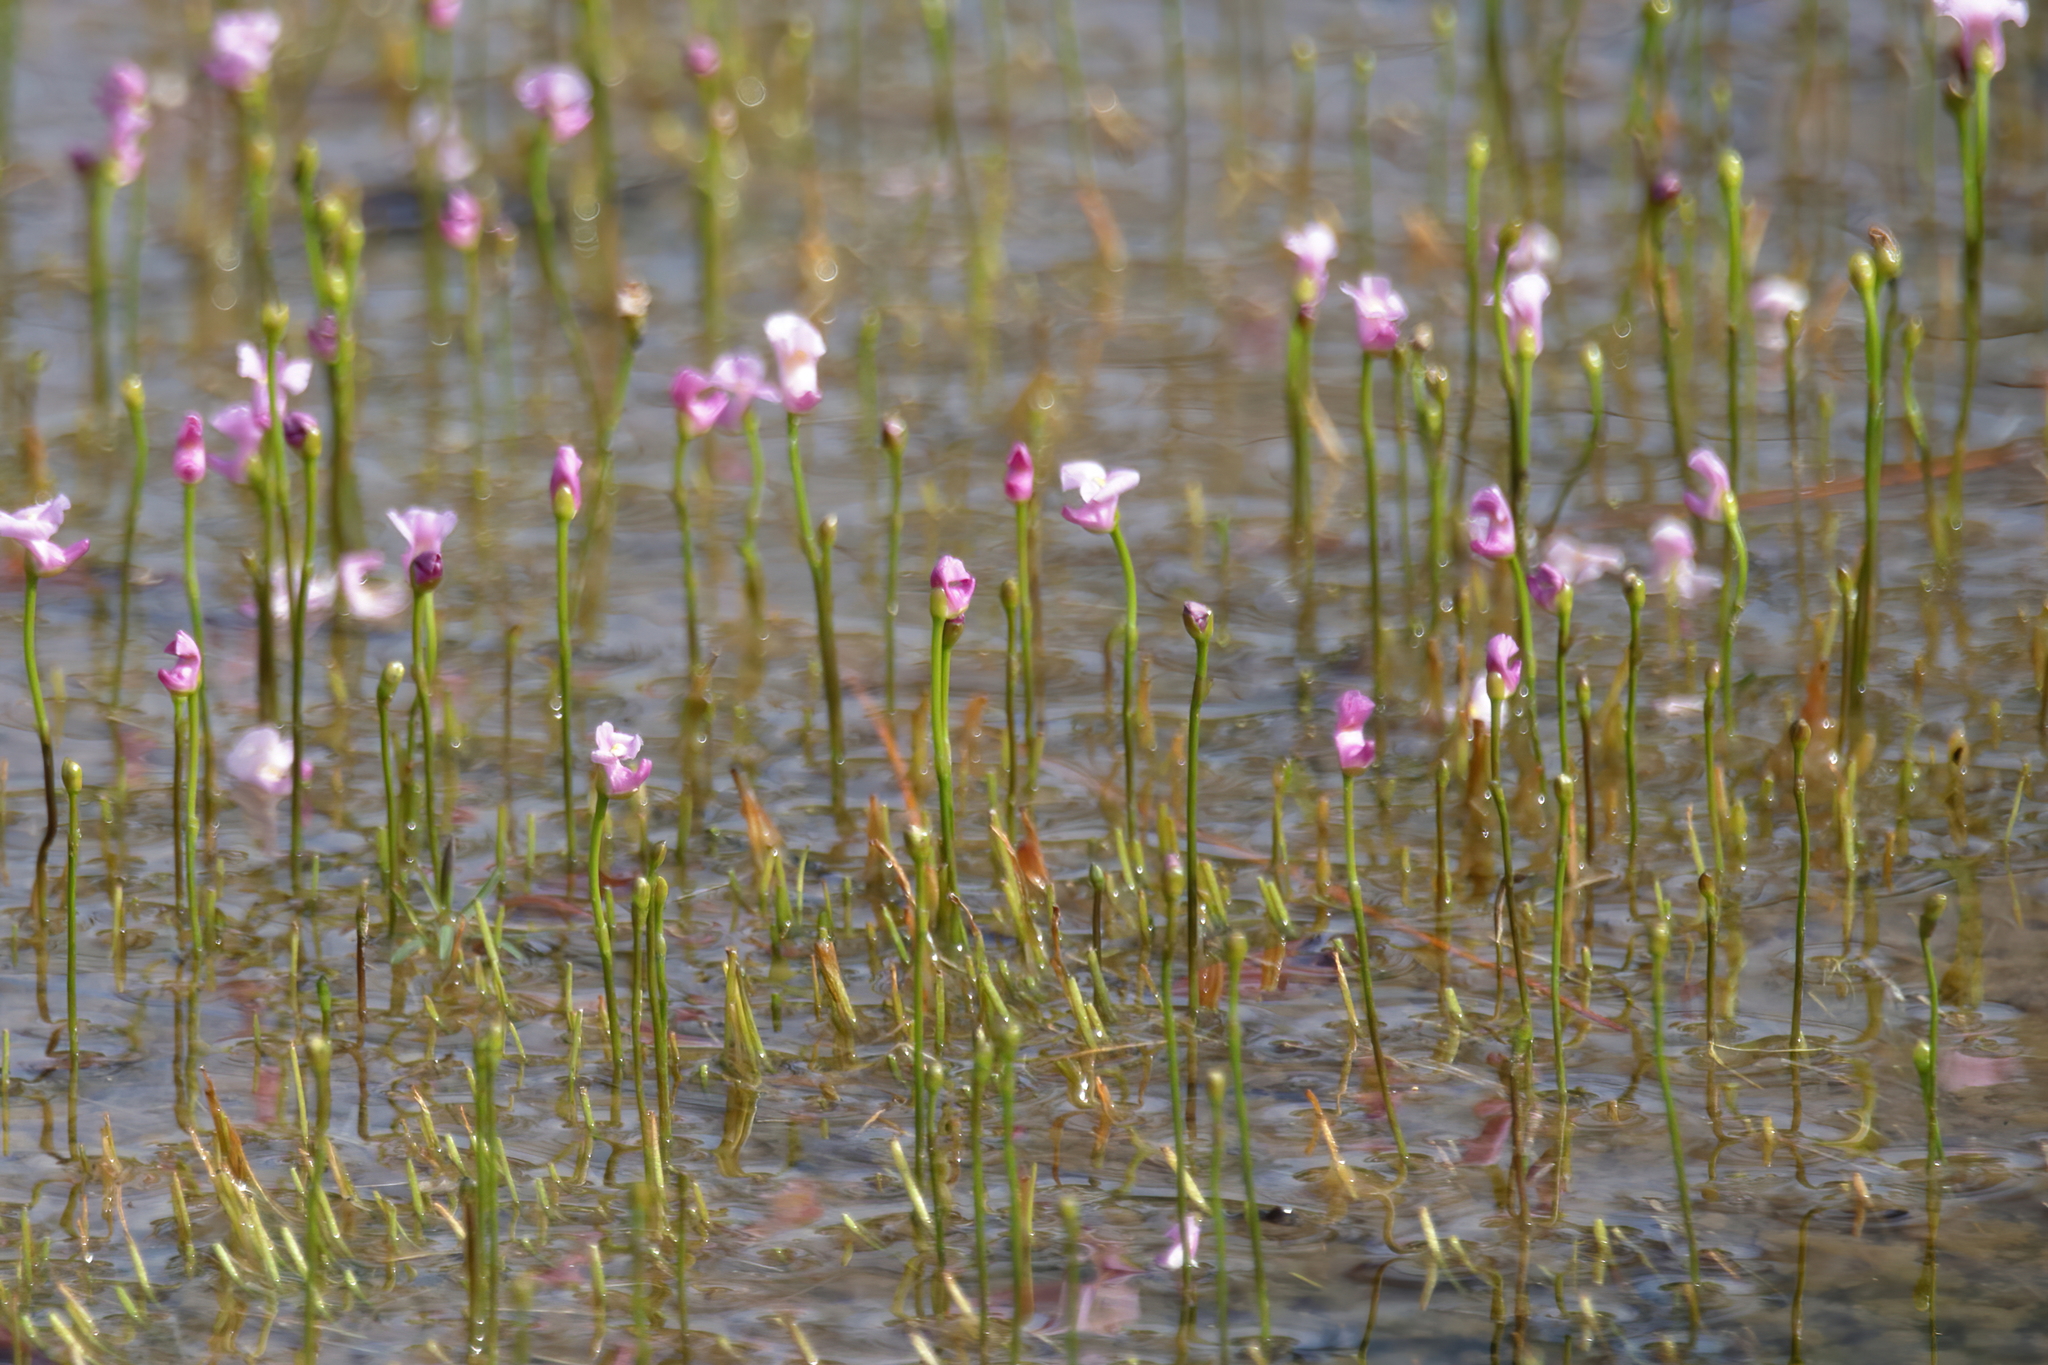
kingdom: Plantae
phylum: Tracheophyta
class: Magnoliopsida
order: Lamiales
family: Lentibulariaceae
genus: Utricularia
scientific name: Utricularia resupinata
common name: Northeastern bladderwort
